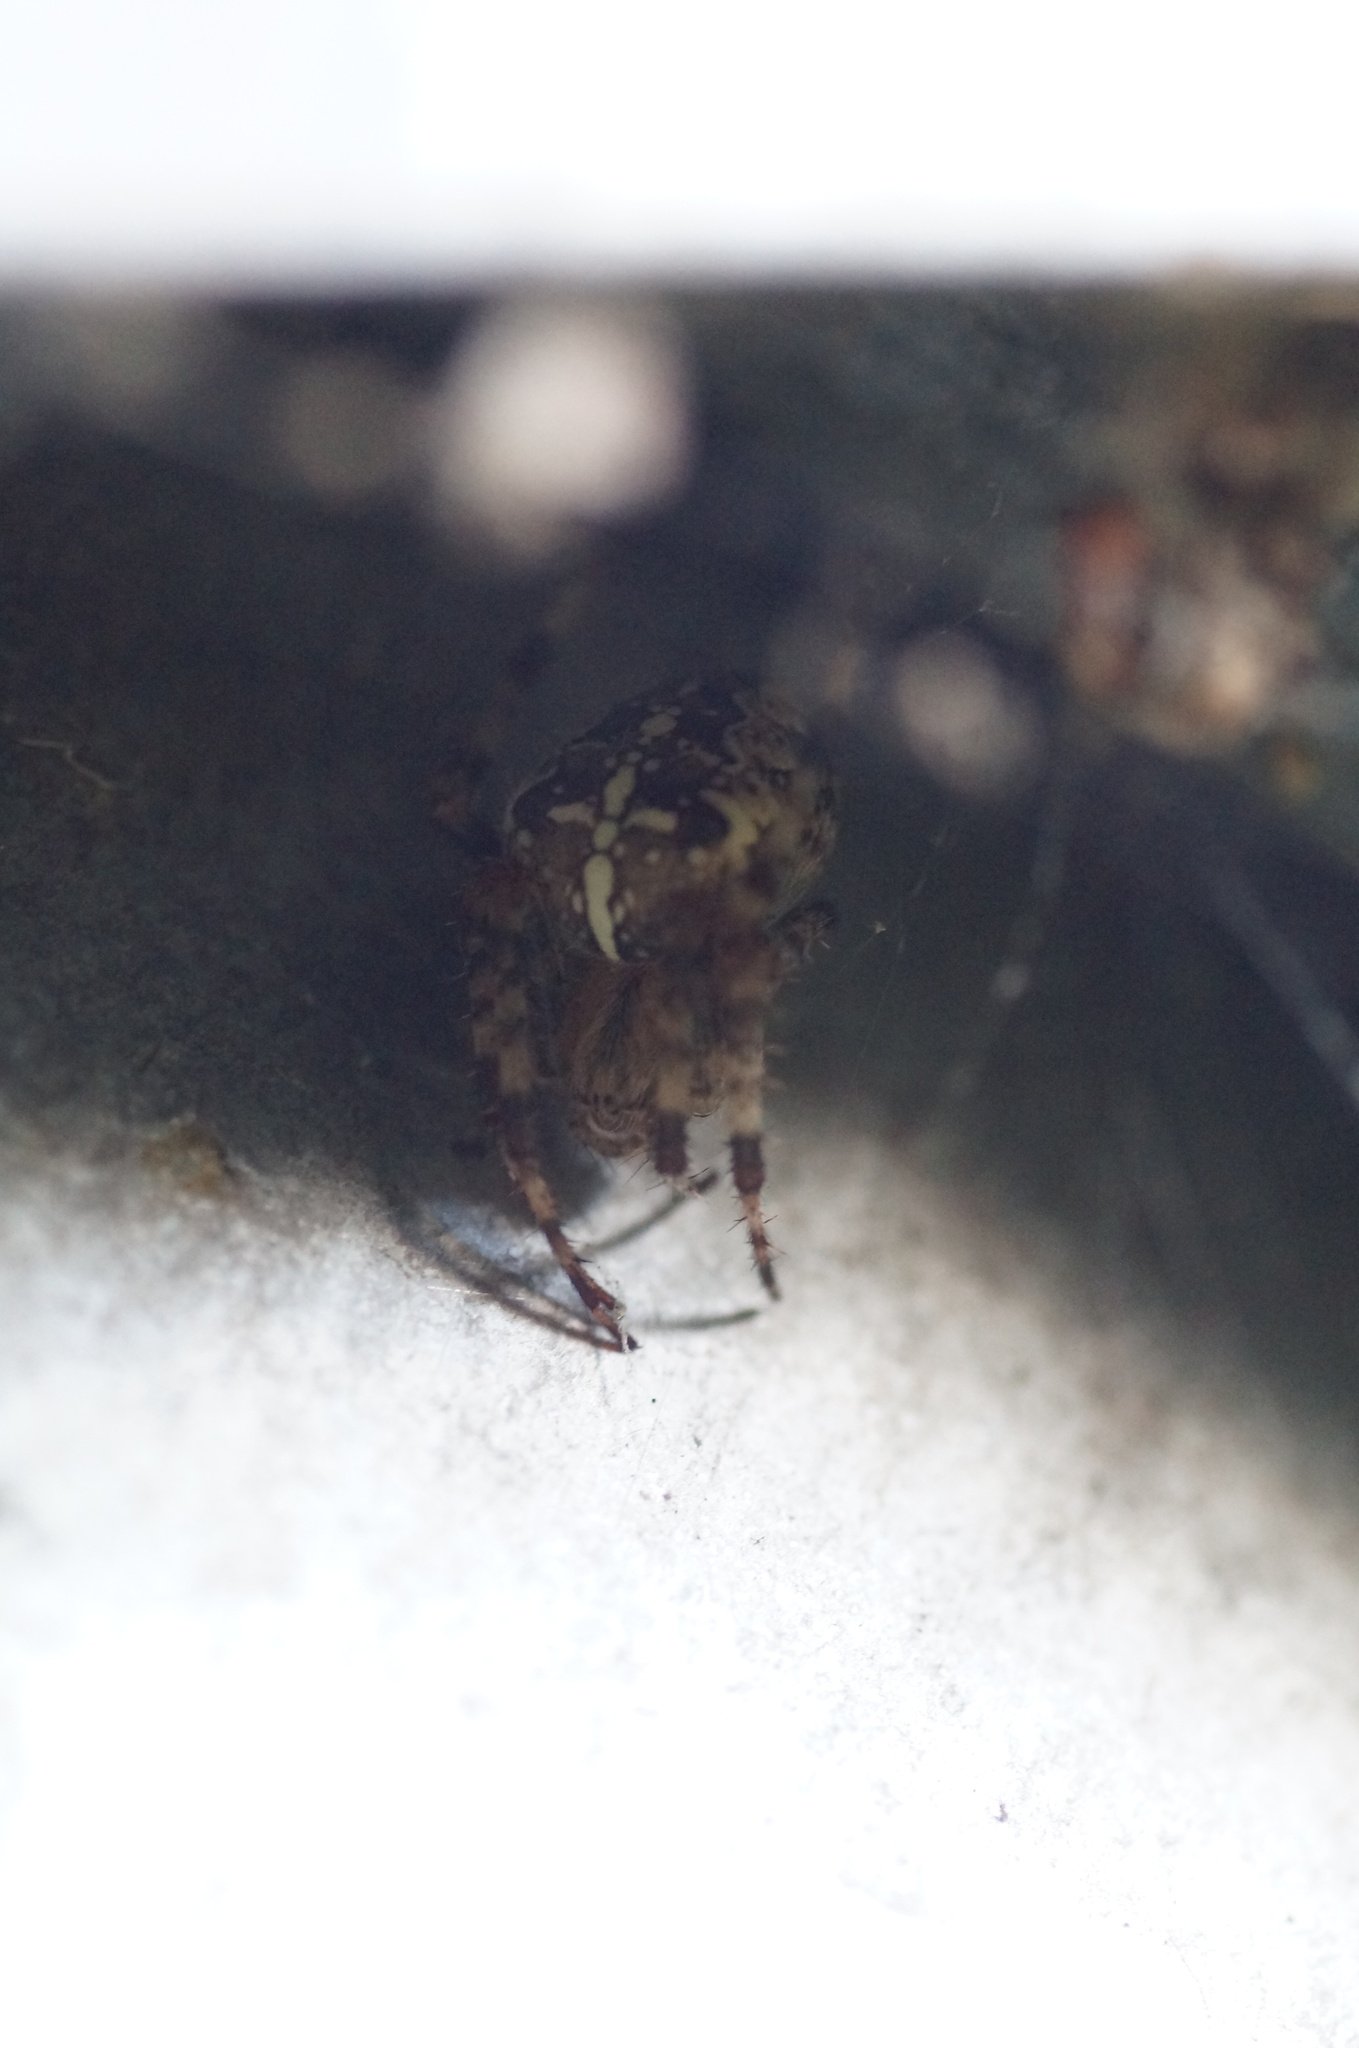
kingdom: Animalia
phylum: Arthropoda
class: Arachnida
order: Araneae
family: Araneidae
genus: Araneus
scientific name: Araneus diadematus
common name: Cross orbweaver
